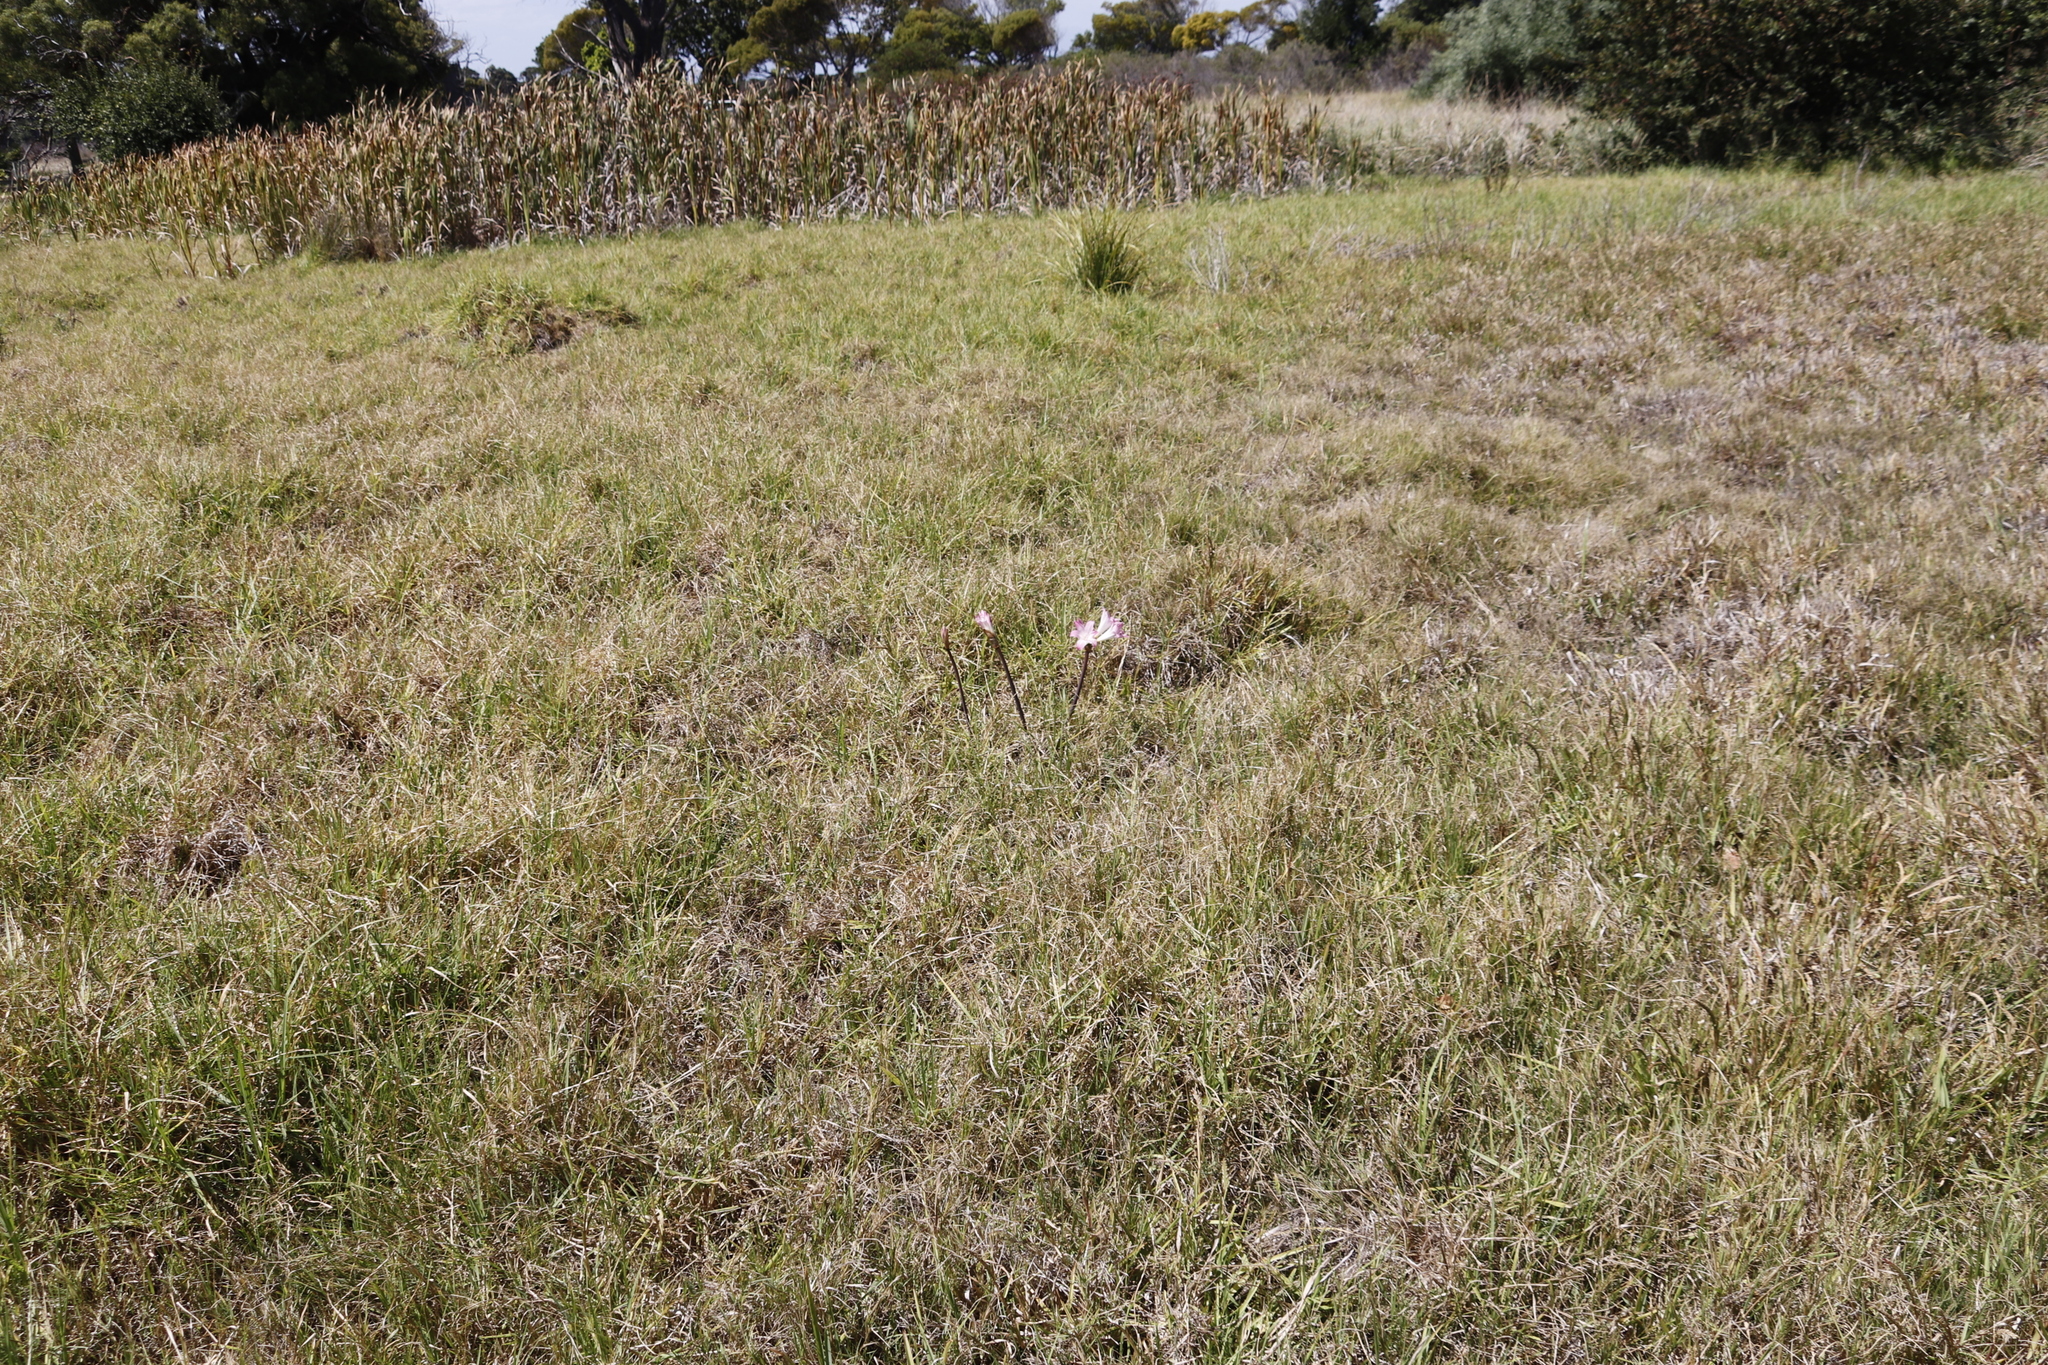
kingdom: Plantae
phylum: Tracheophyta
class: Liliopsida
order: Asparagales
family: Amaryllidaceae
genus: Amaryllis
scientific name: Amaryllis belladonna
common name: Jersey lily
